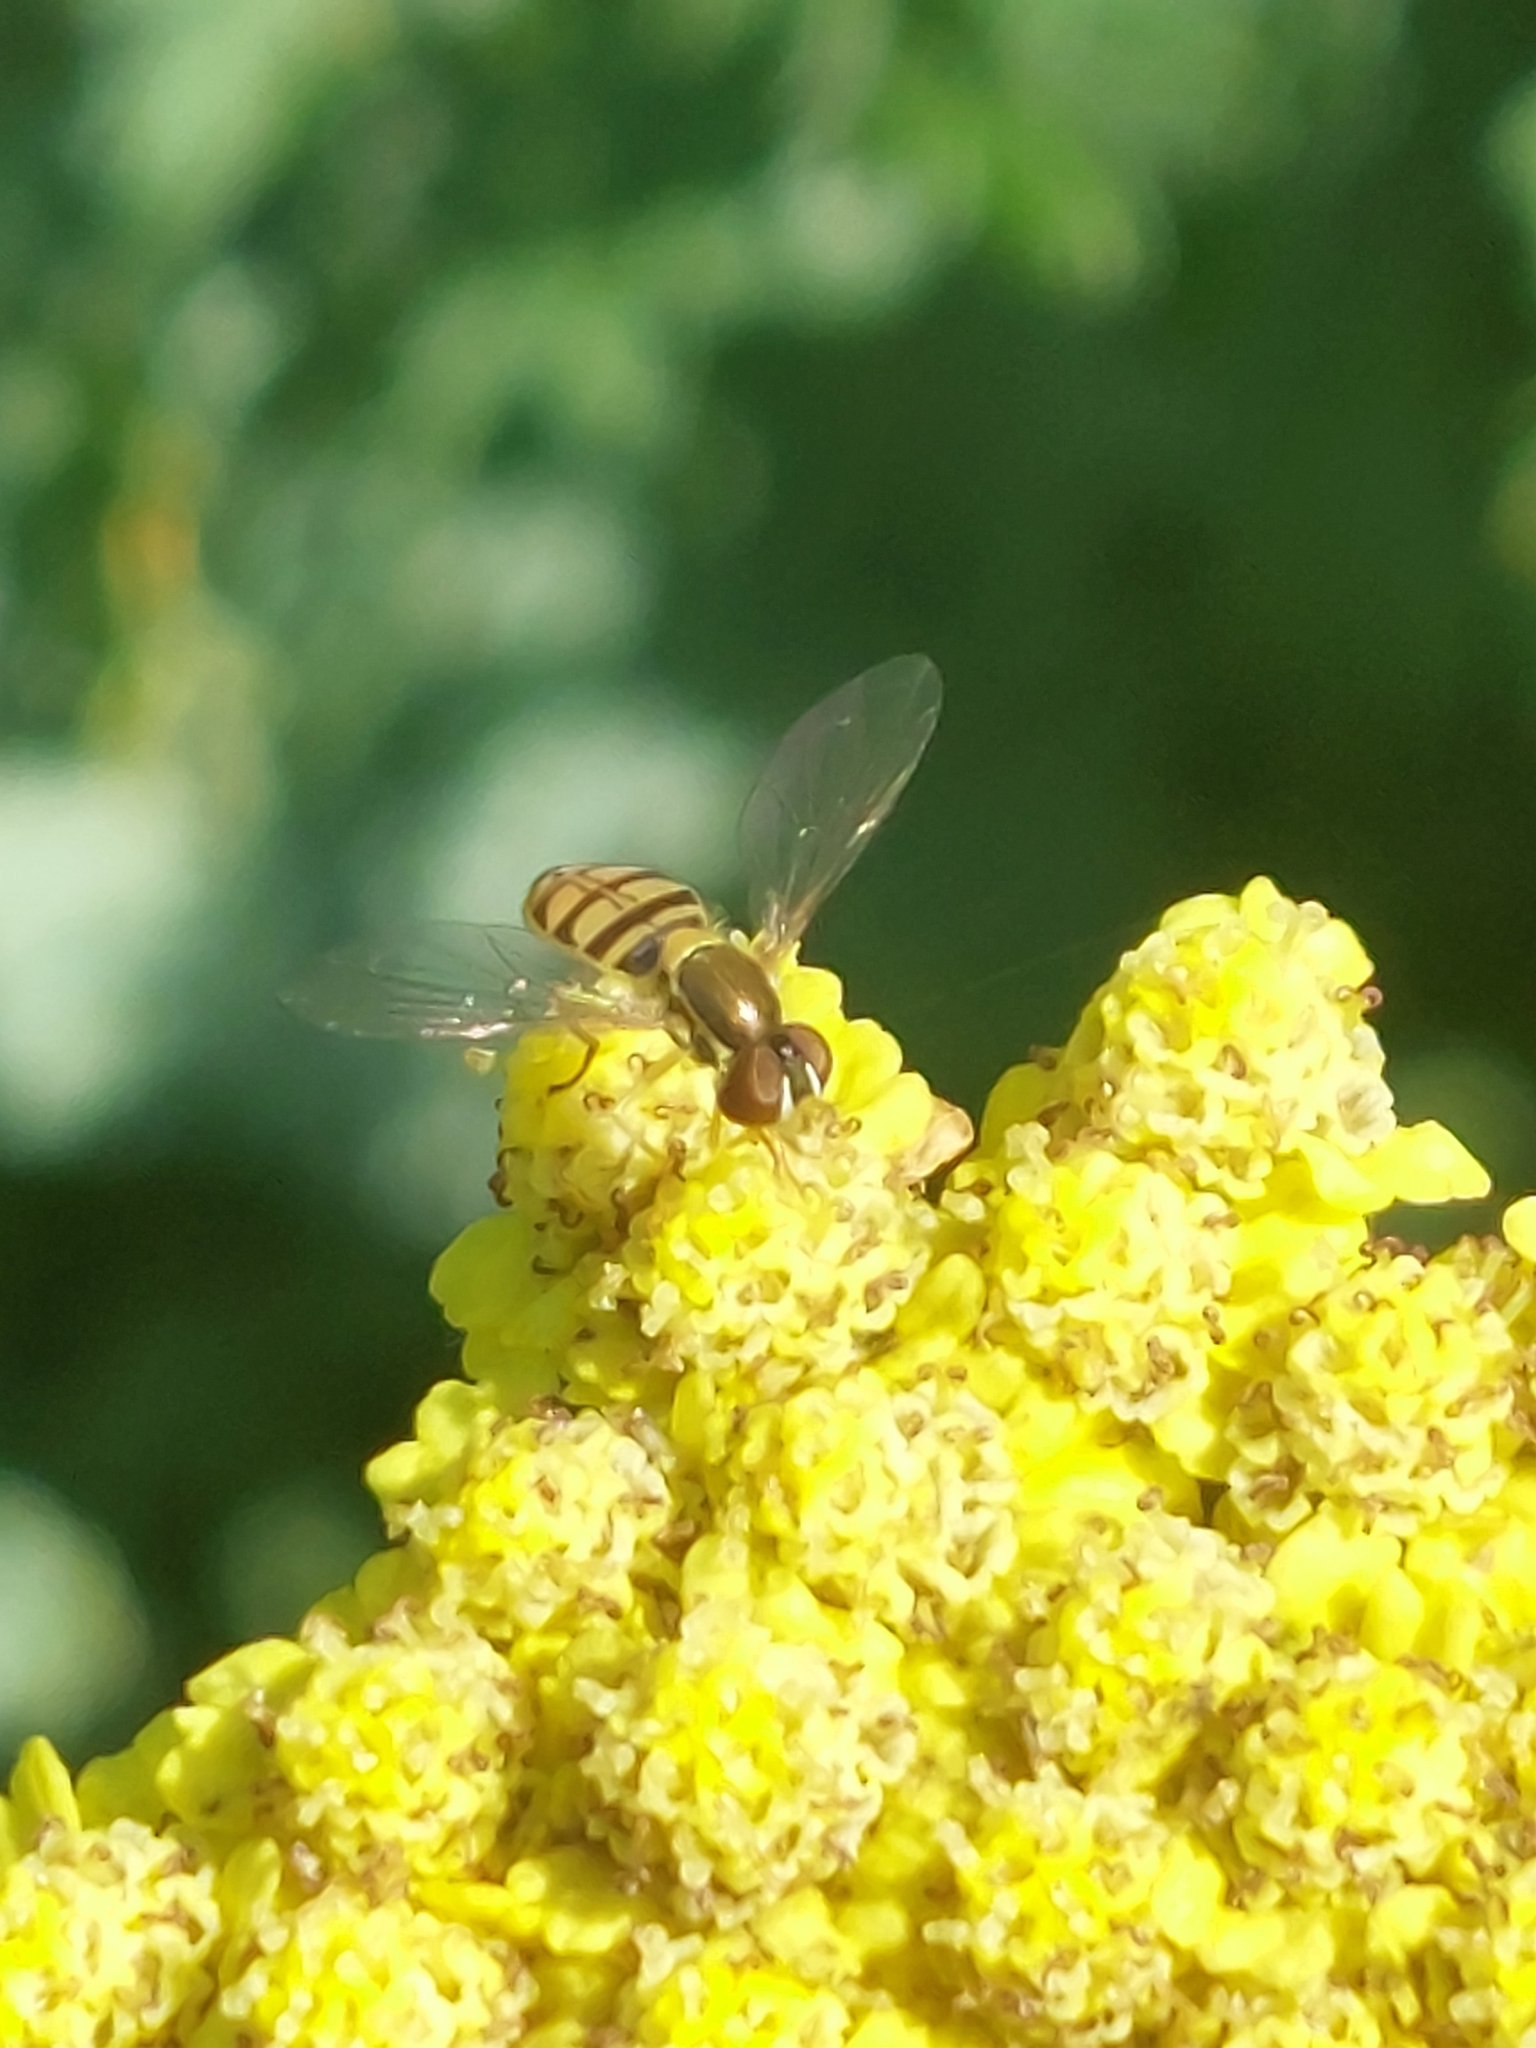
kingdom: Animalia
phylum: Arthropoda
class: Insecta
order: Diptera
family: Syrphidae
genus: Toxomerus
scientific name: Toxomerus marginatus
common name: Syrphid fly
